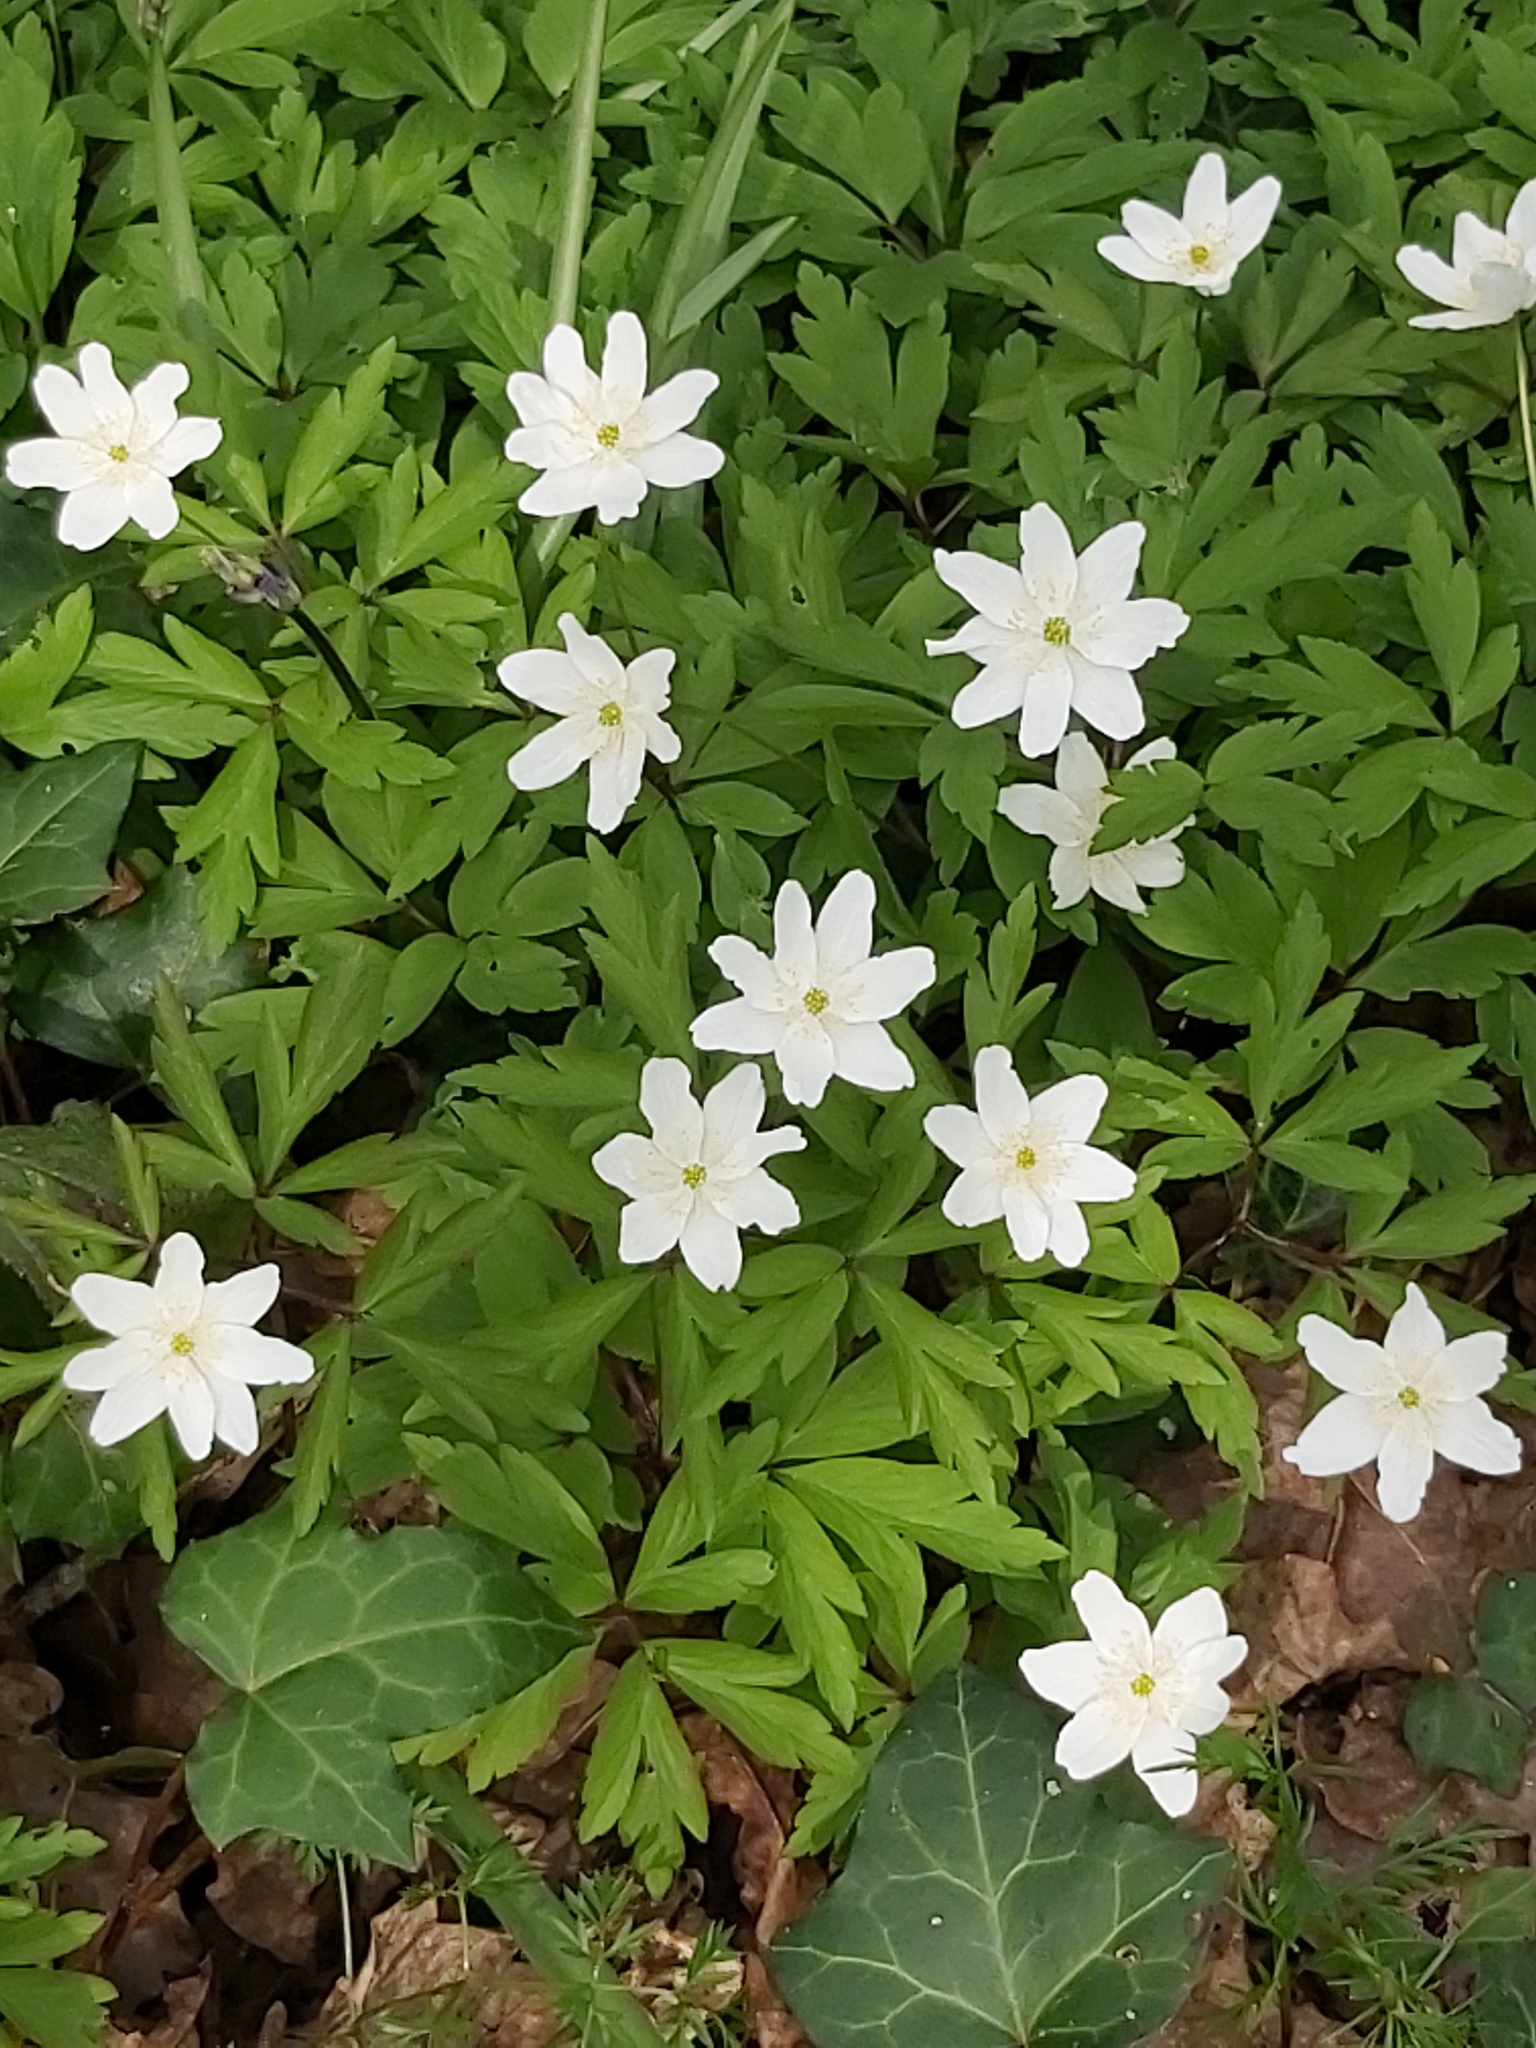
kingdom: Plantae
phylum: Tracheophyta
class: Magnoliopsida
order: Ranunculales
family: Ranunculaceae
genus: Anemone
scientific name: Anemone nemorosa
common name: Wood anemone
